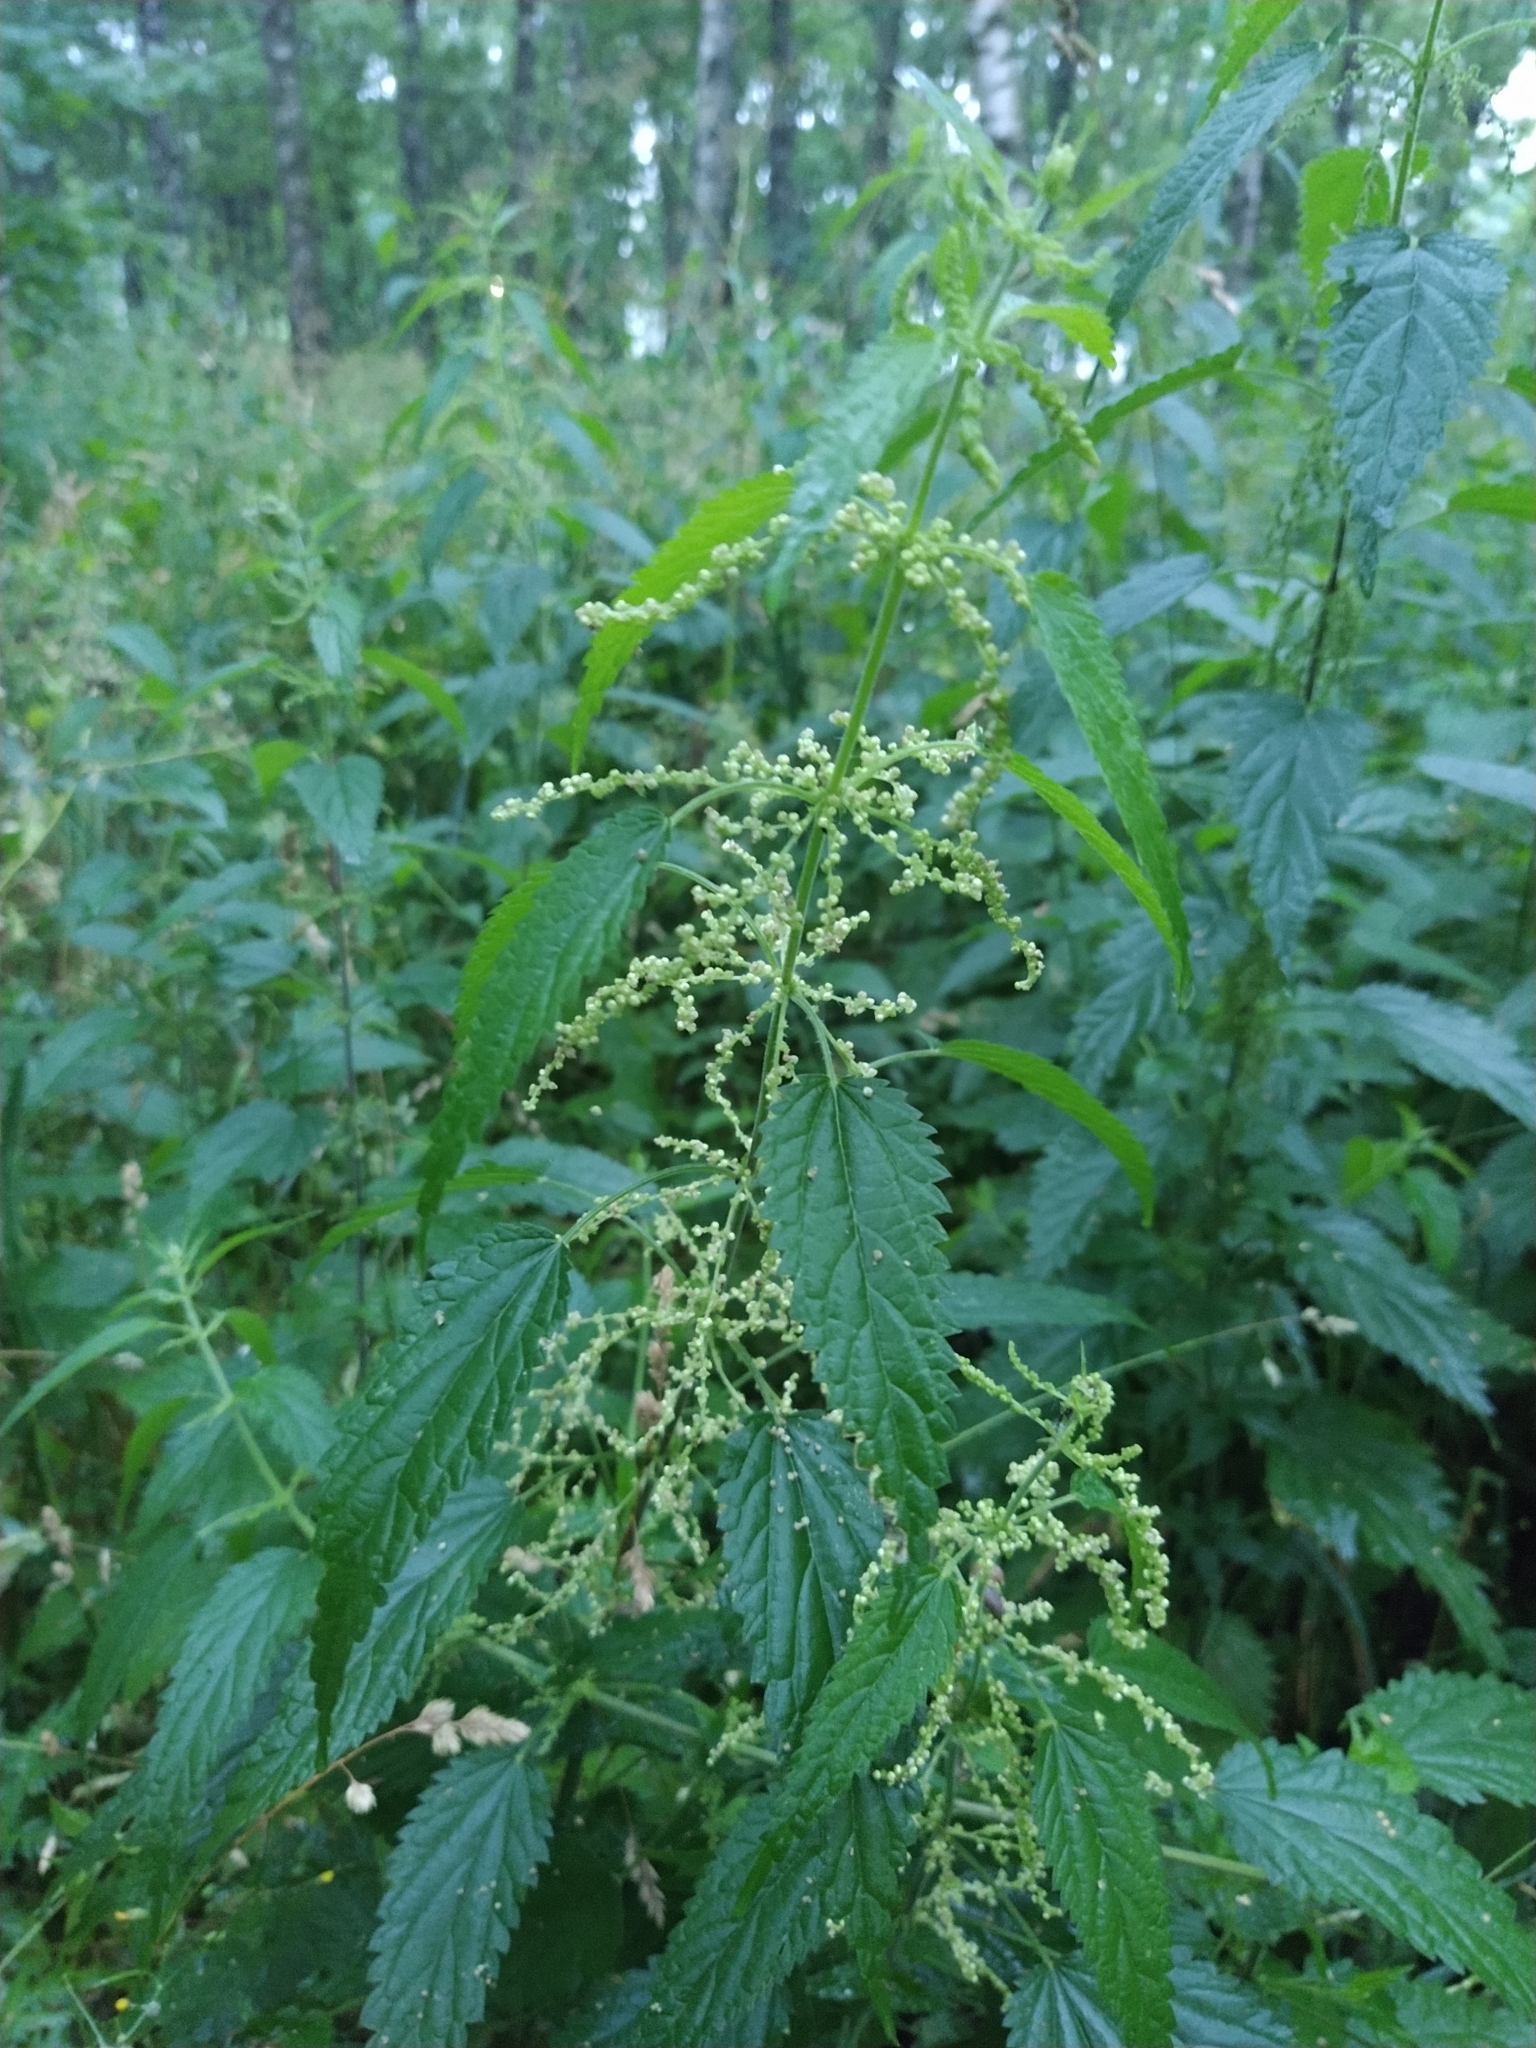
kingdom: Plantae
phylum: Tracheophyta
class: Magnoliopsida
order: Rosales
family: Urticaceae
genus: Urtica
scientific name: Urtica dioica
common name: Common nettle
